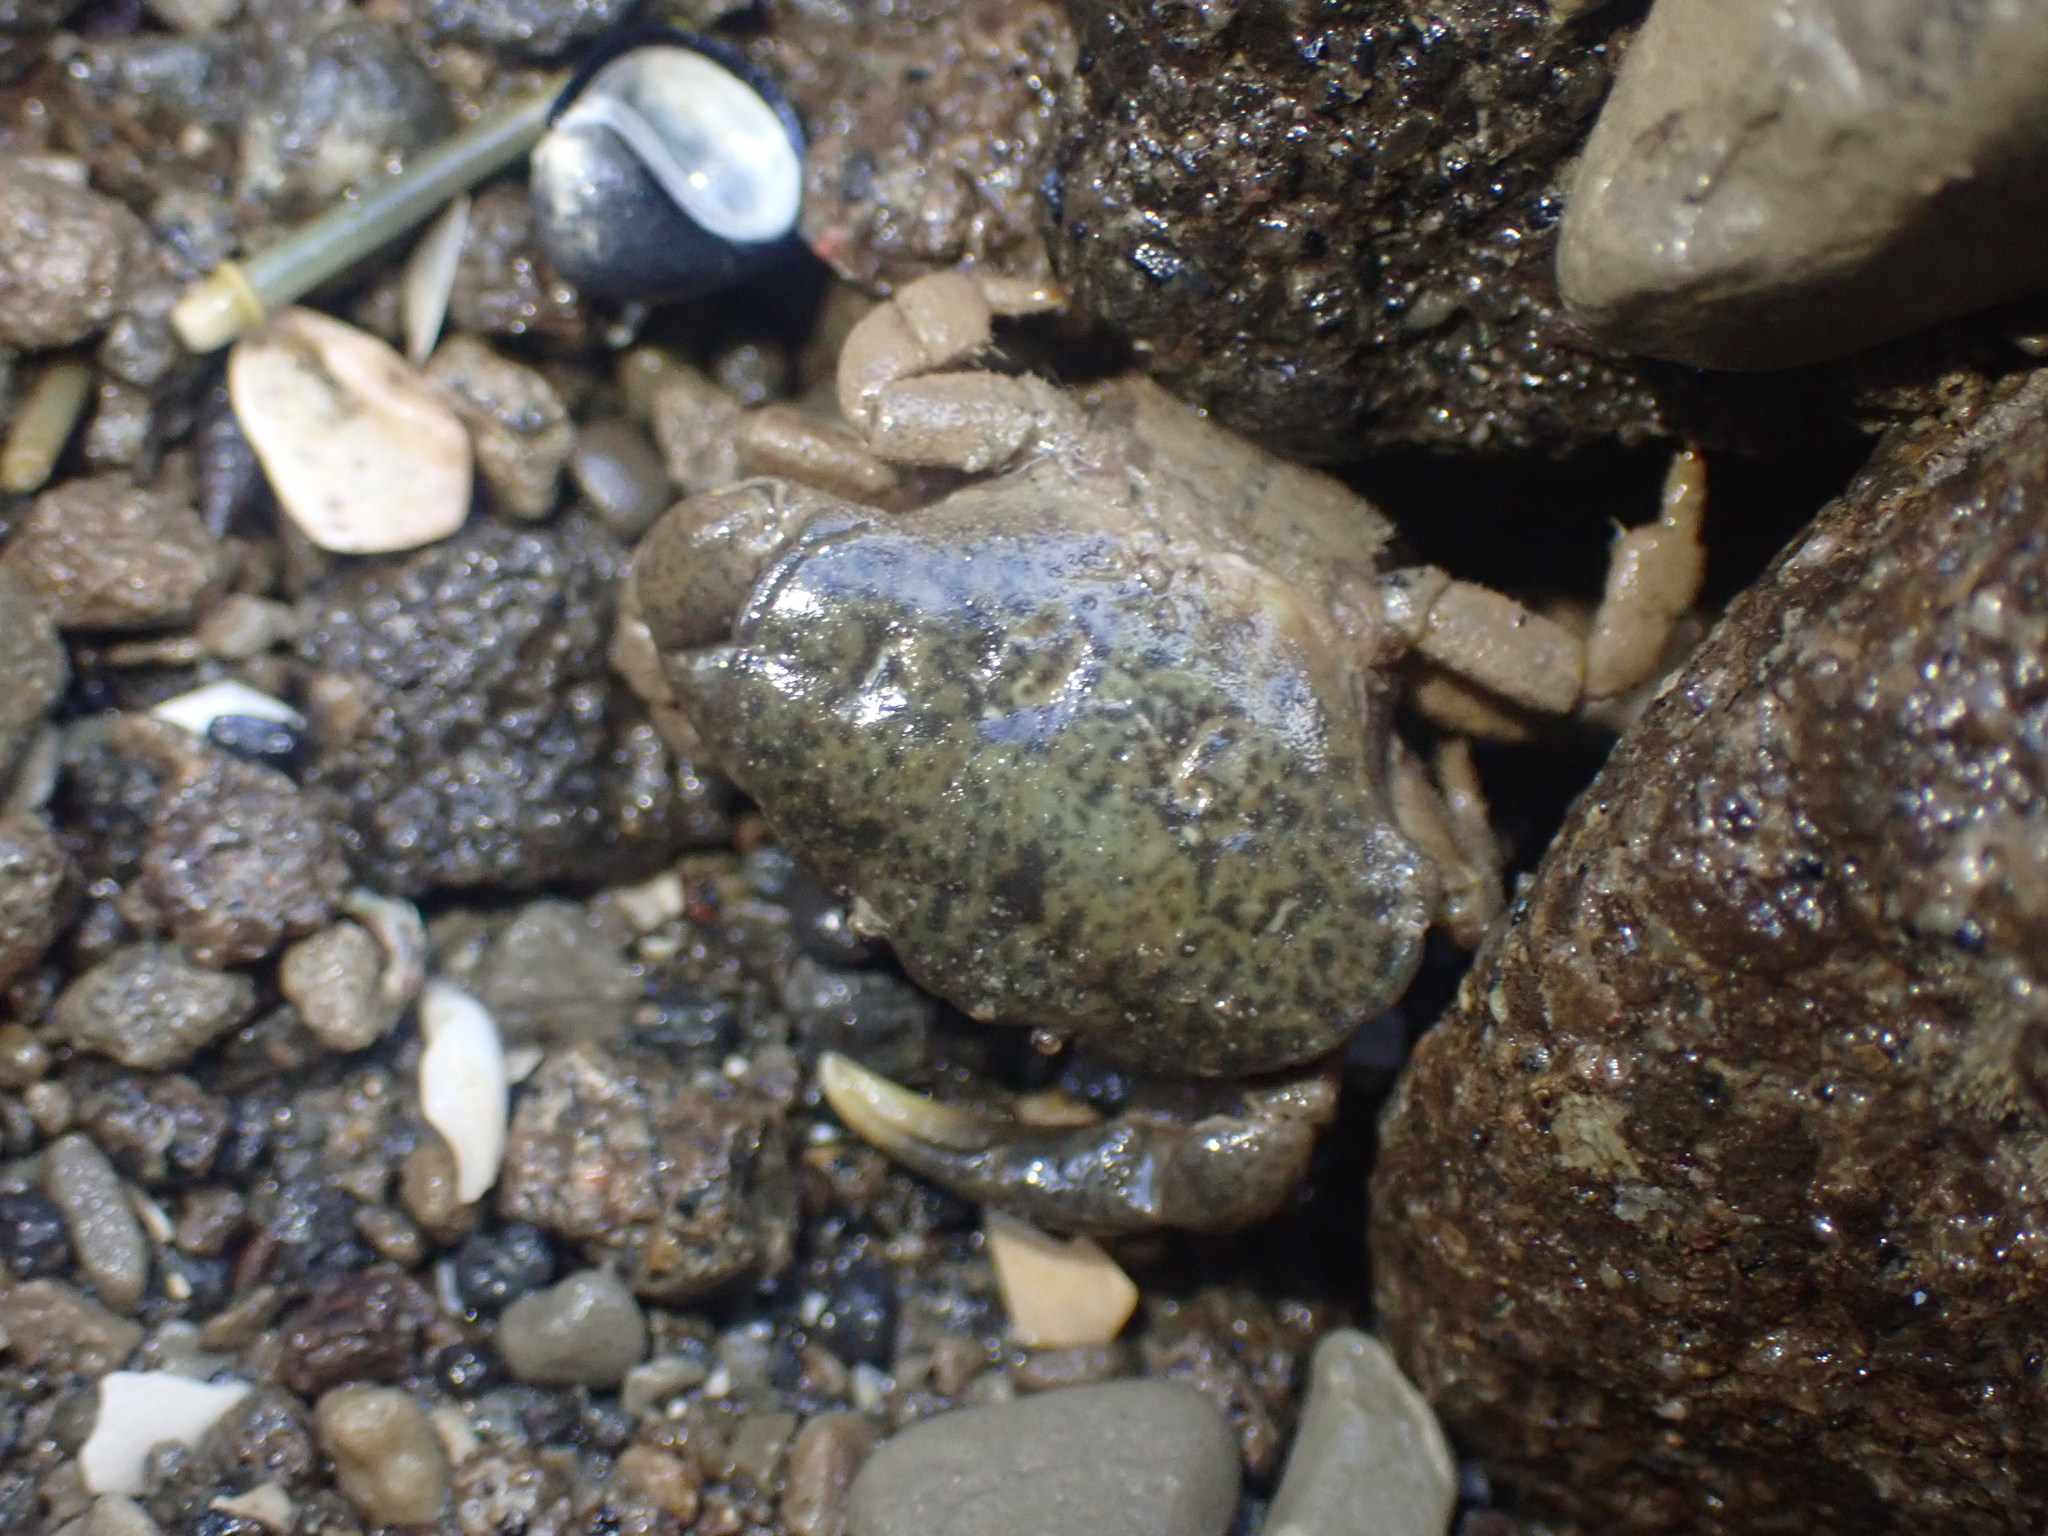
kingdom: Animalia
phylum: Arthropoda
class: Malacostraca
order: Decapoda
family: Heteroziidae
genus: Heterozius
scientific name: Heterozius rotundifrons
